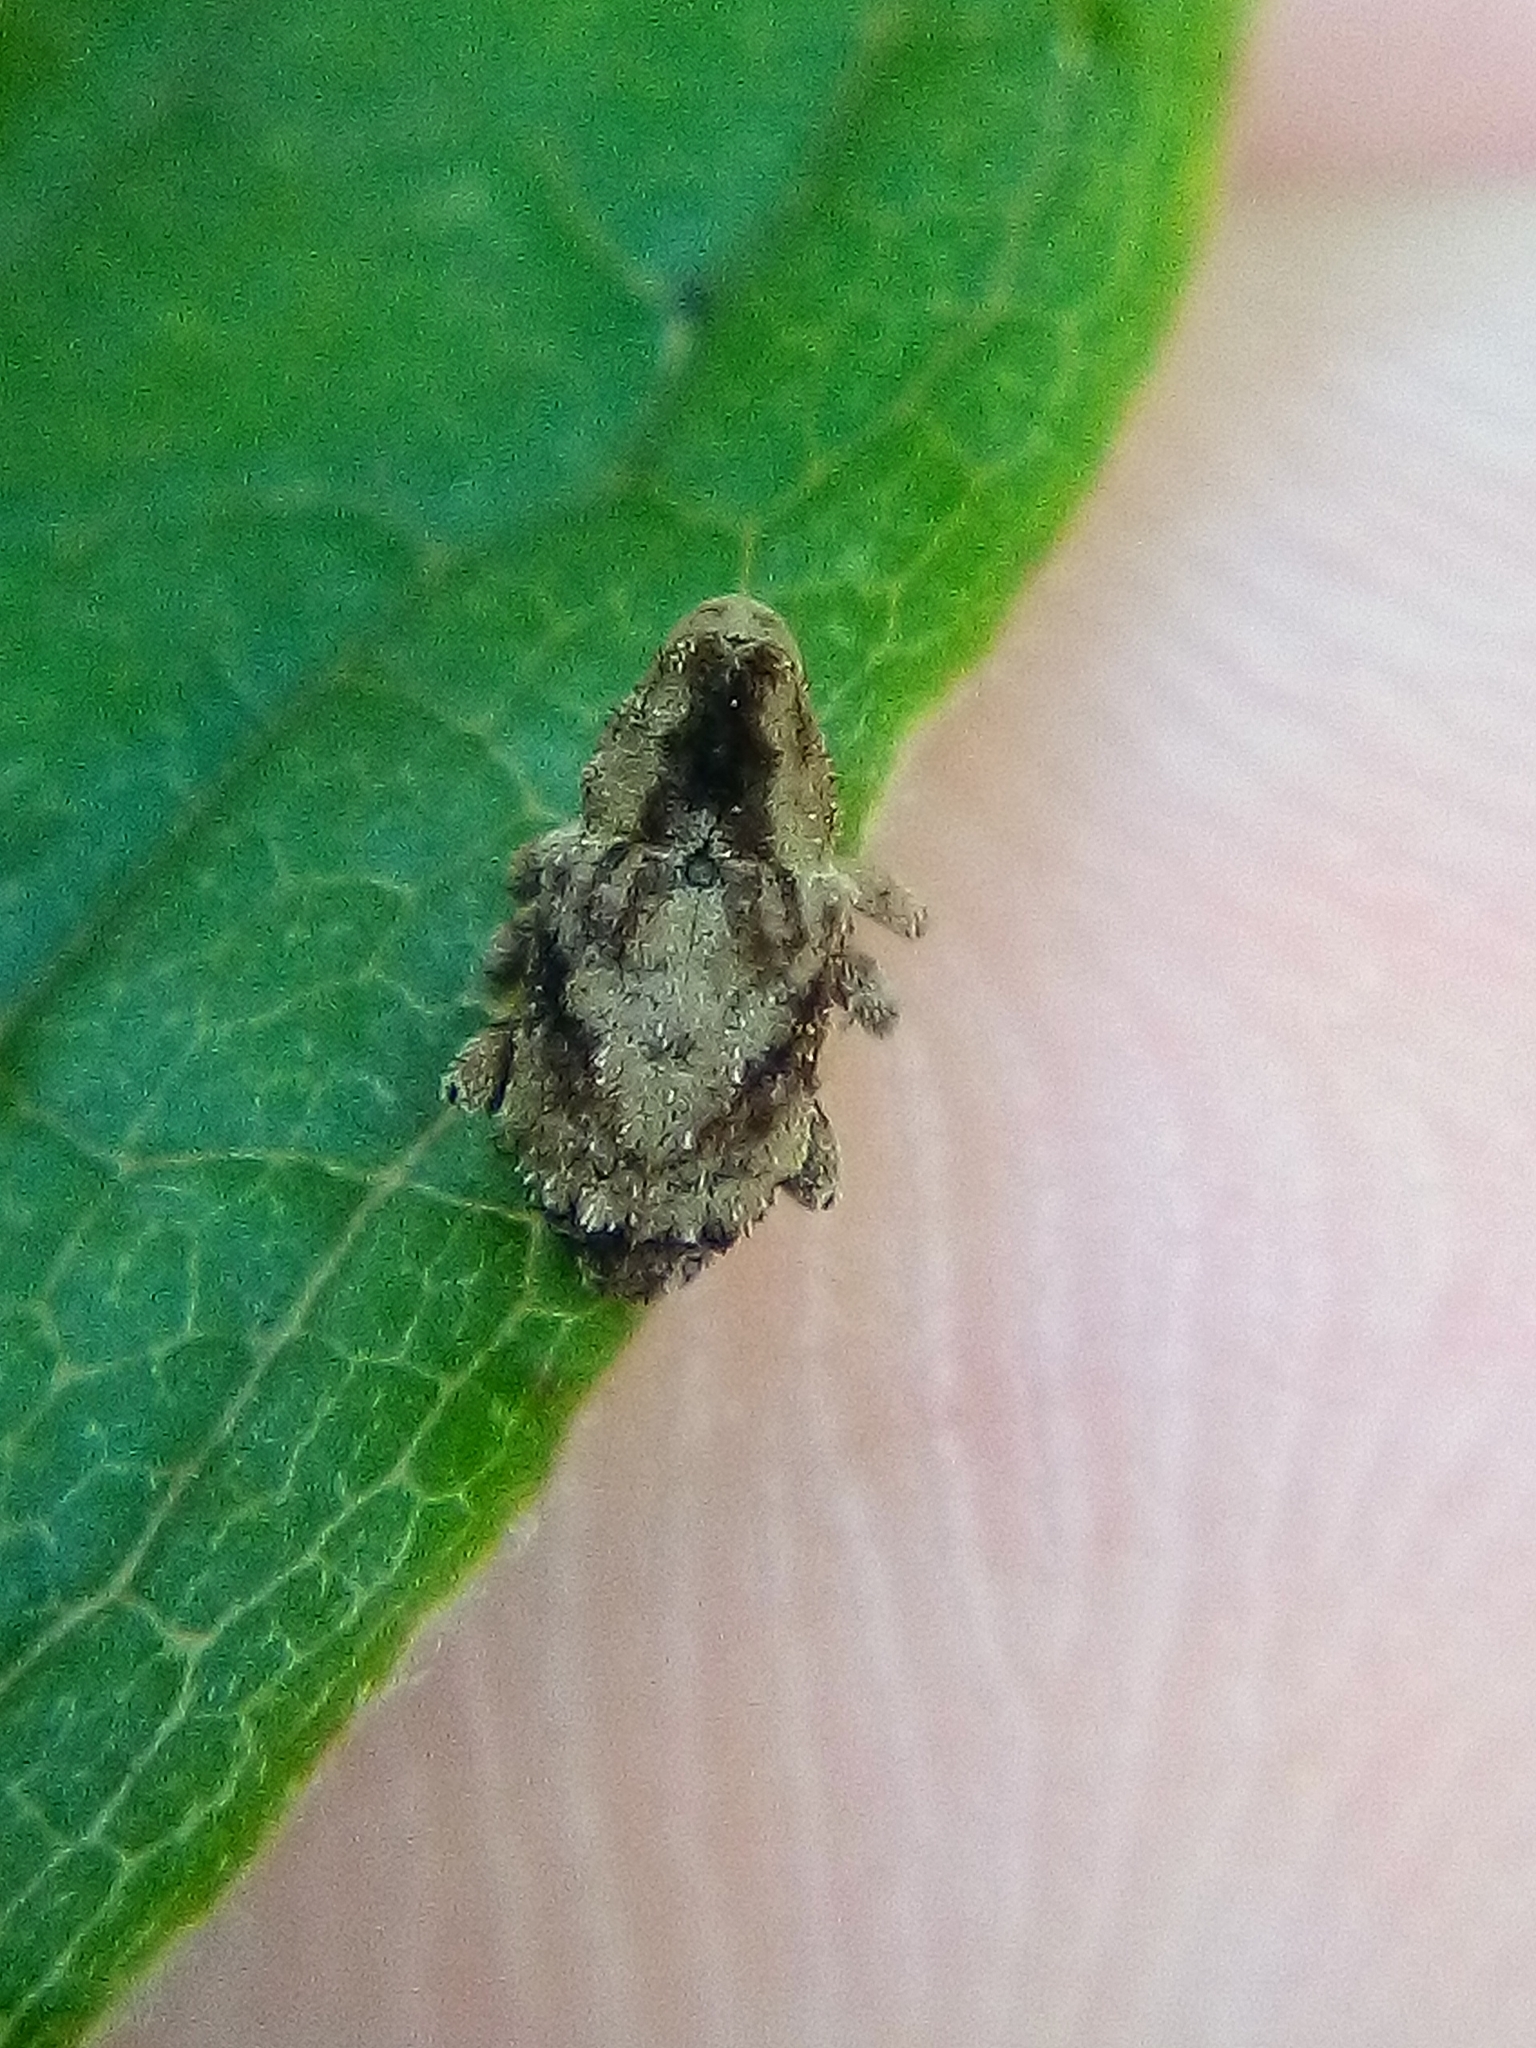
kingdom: Animalia
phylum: Arthropoda
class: Insecta
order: Coleoptera
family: Curculionidae
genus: Mecistostylus
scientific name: Mecistostylus douei
